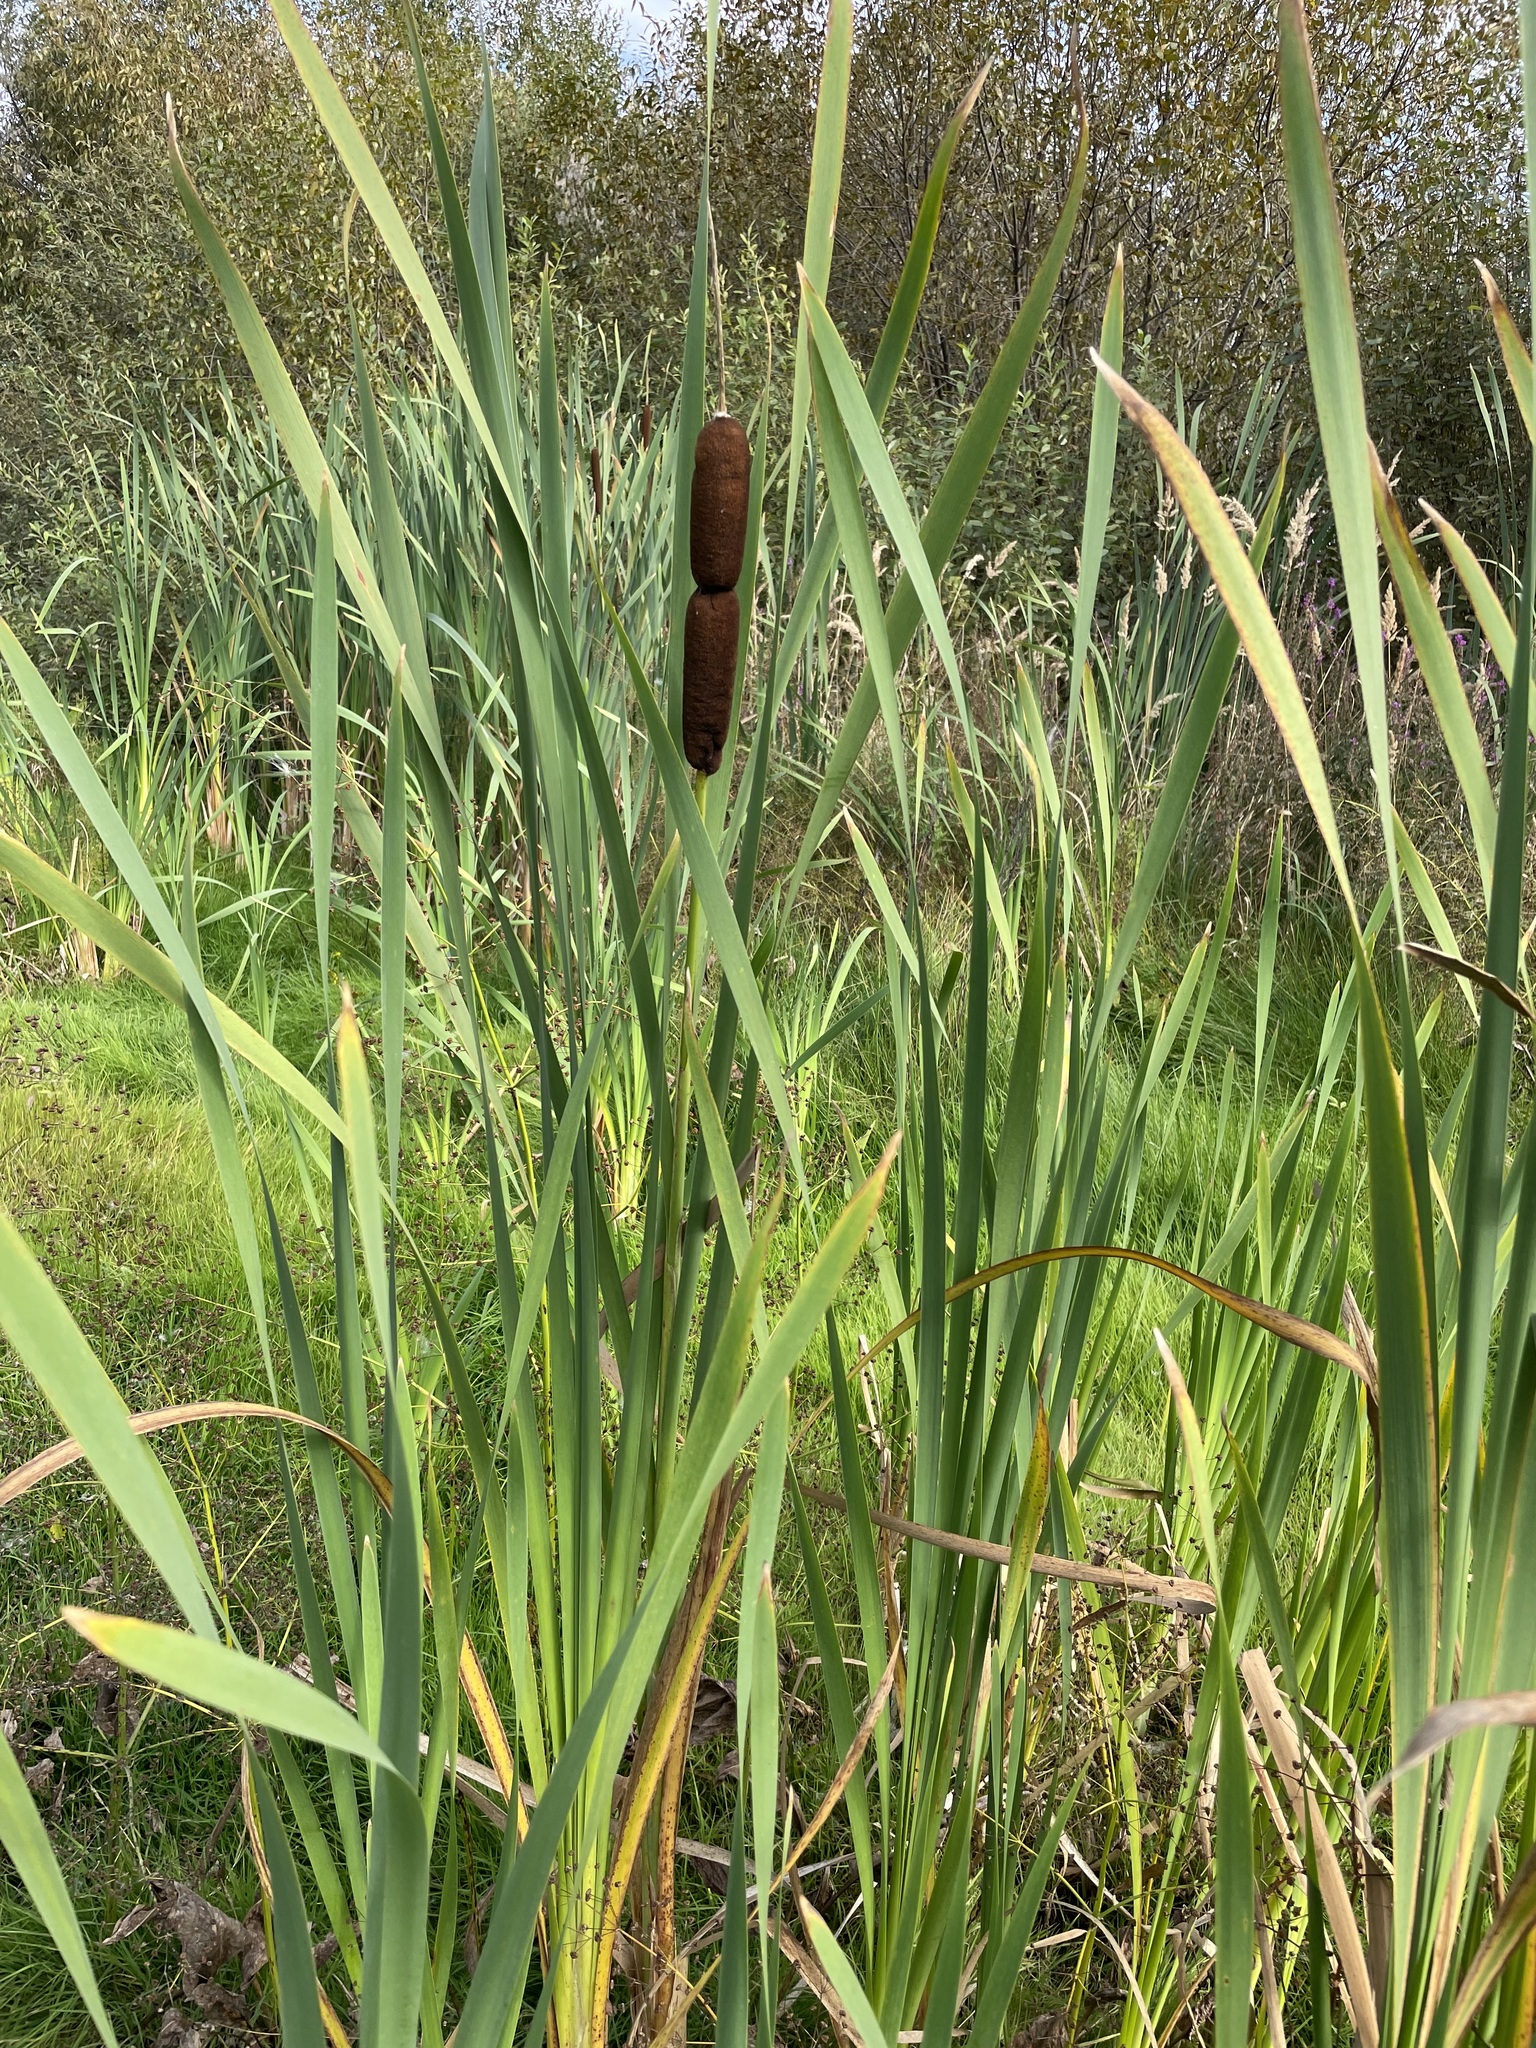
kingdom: Plantae
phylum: Tracheophyta
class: Liliopsida
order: Poales
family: Typhaceae
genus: Typha
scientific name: Typha latifolia
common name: Broadleaf cattail
